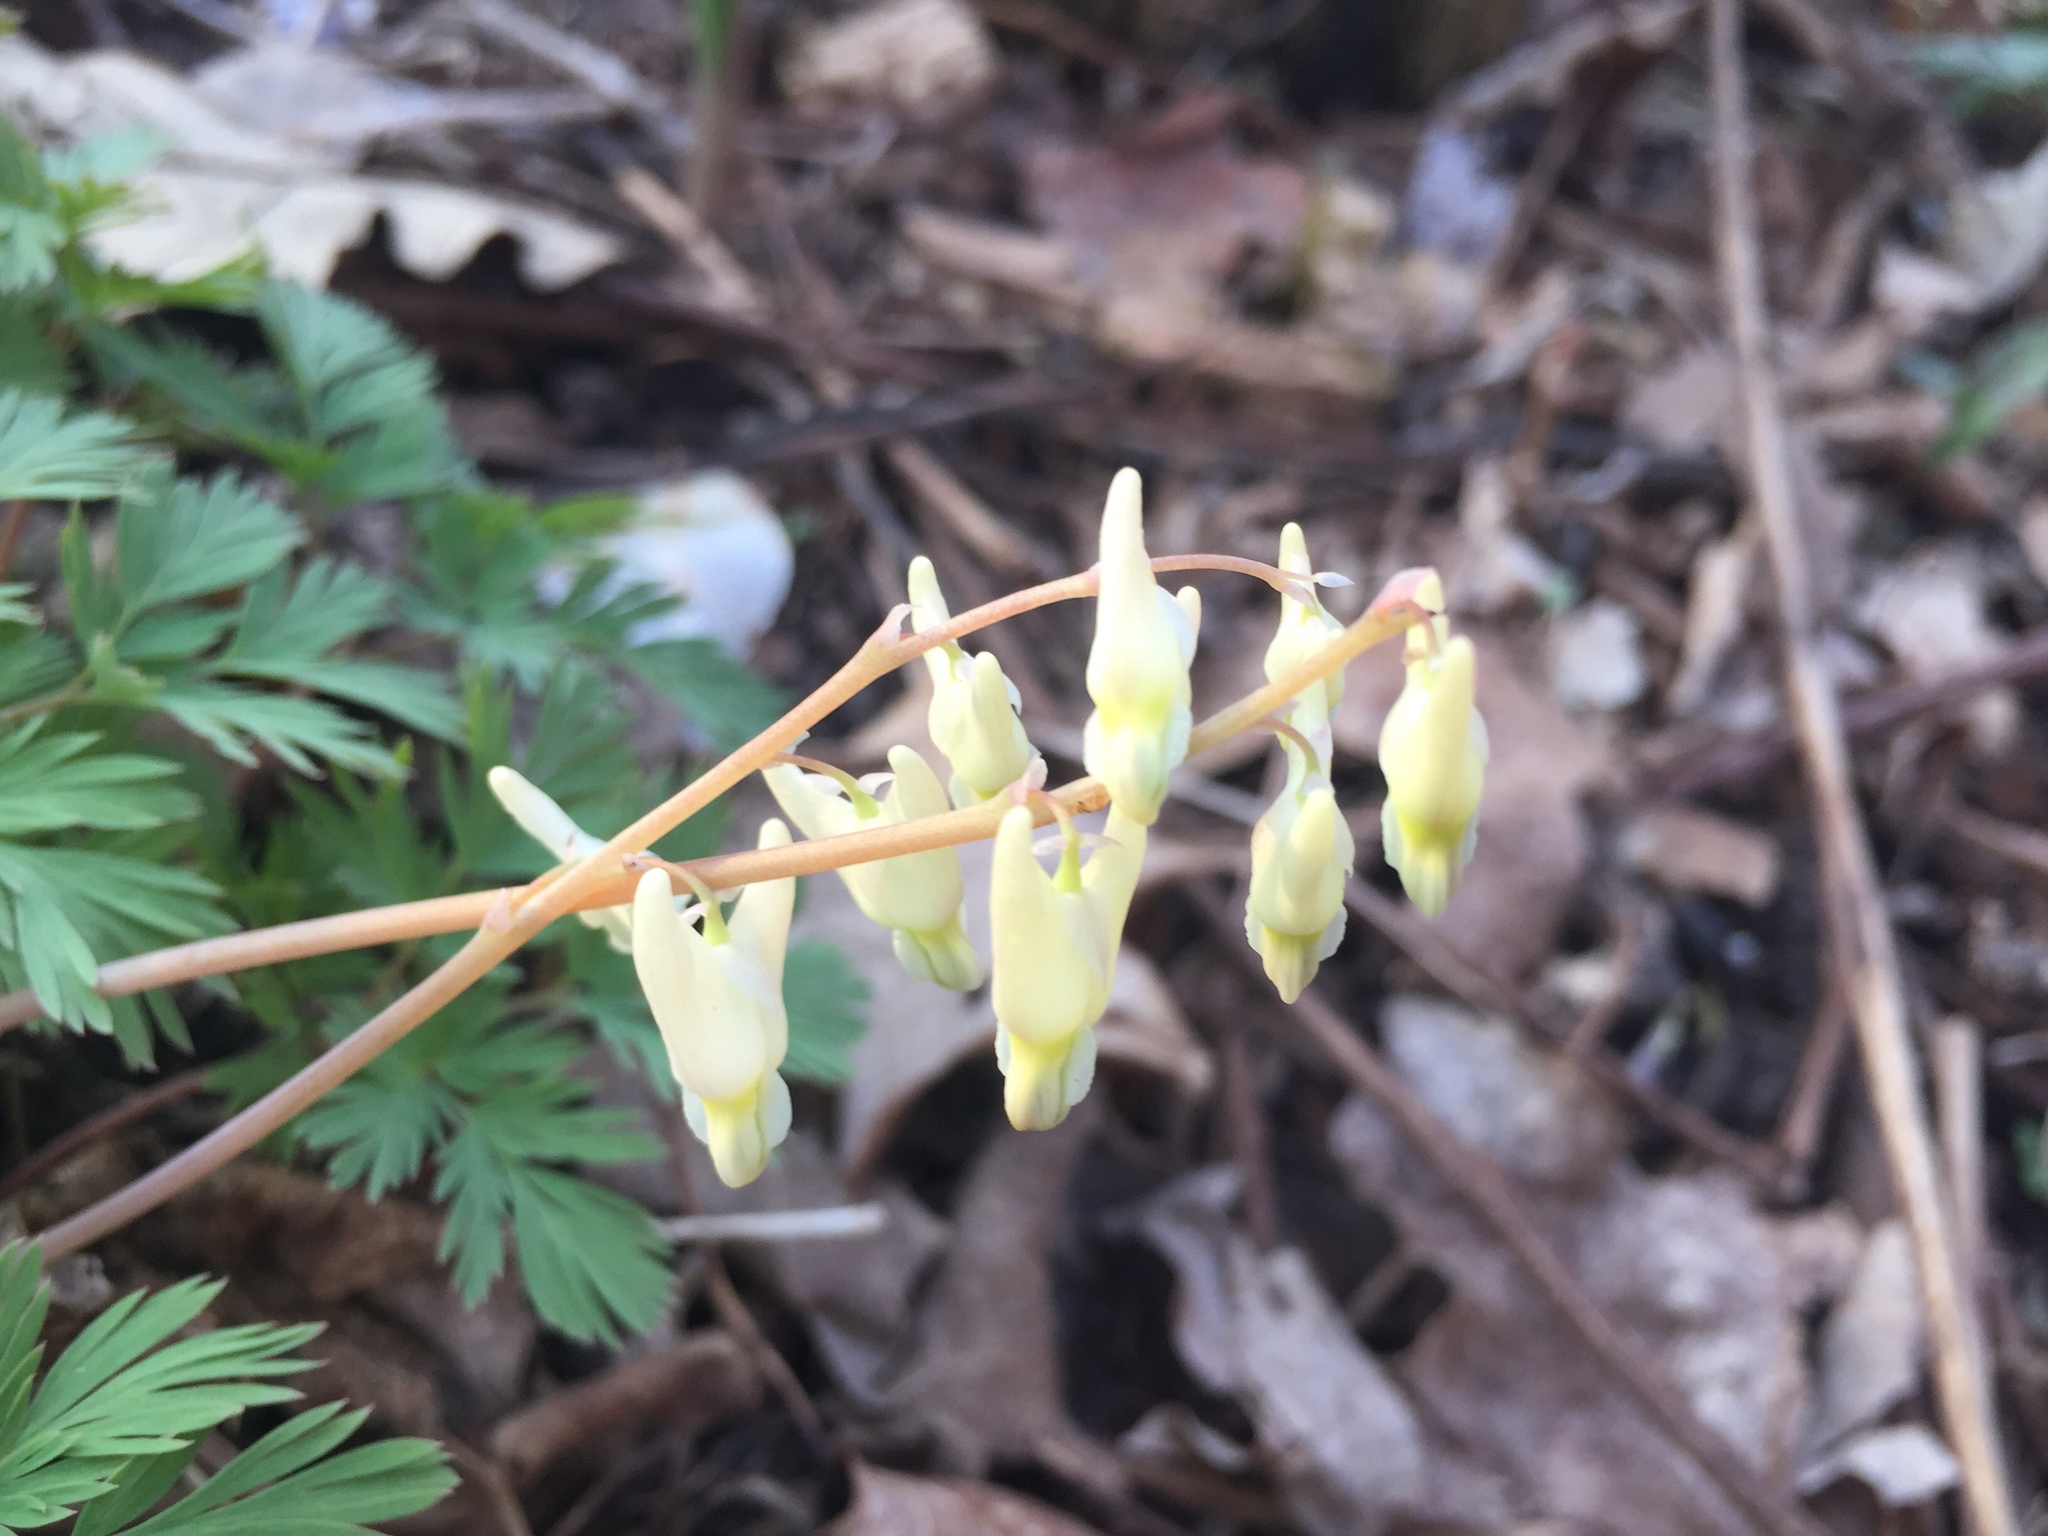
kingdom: Plantae
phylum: Tracheophyta
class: Magnoliopsida
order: Ranunculales
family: Papaveraceae
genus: Dicentra
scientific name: Dicentra cucullaria
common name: Dutchman's breeches
